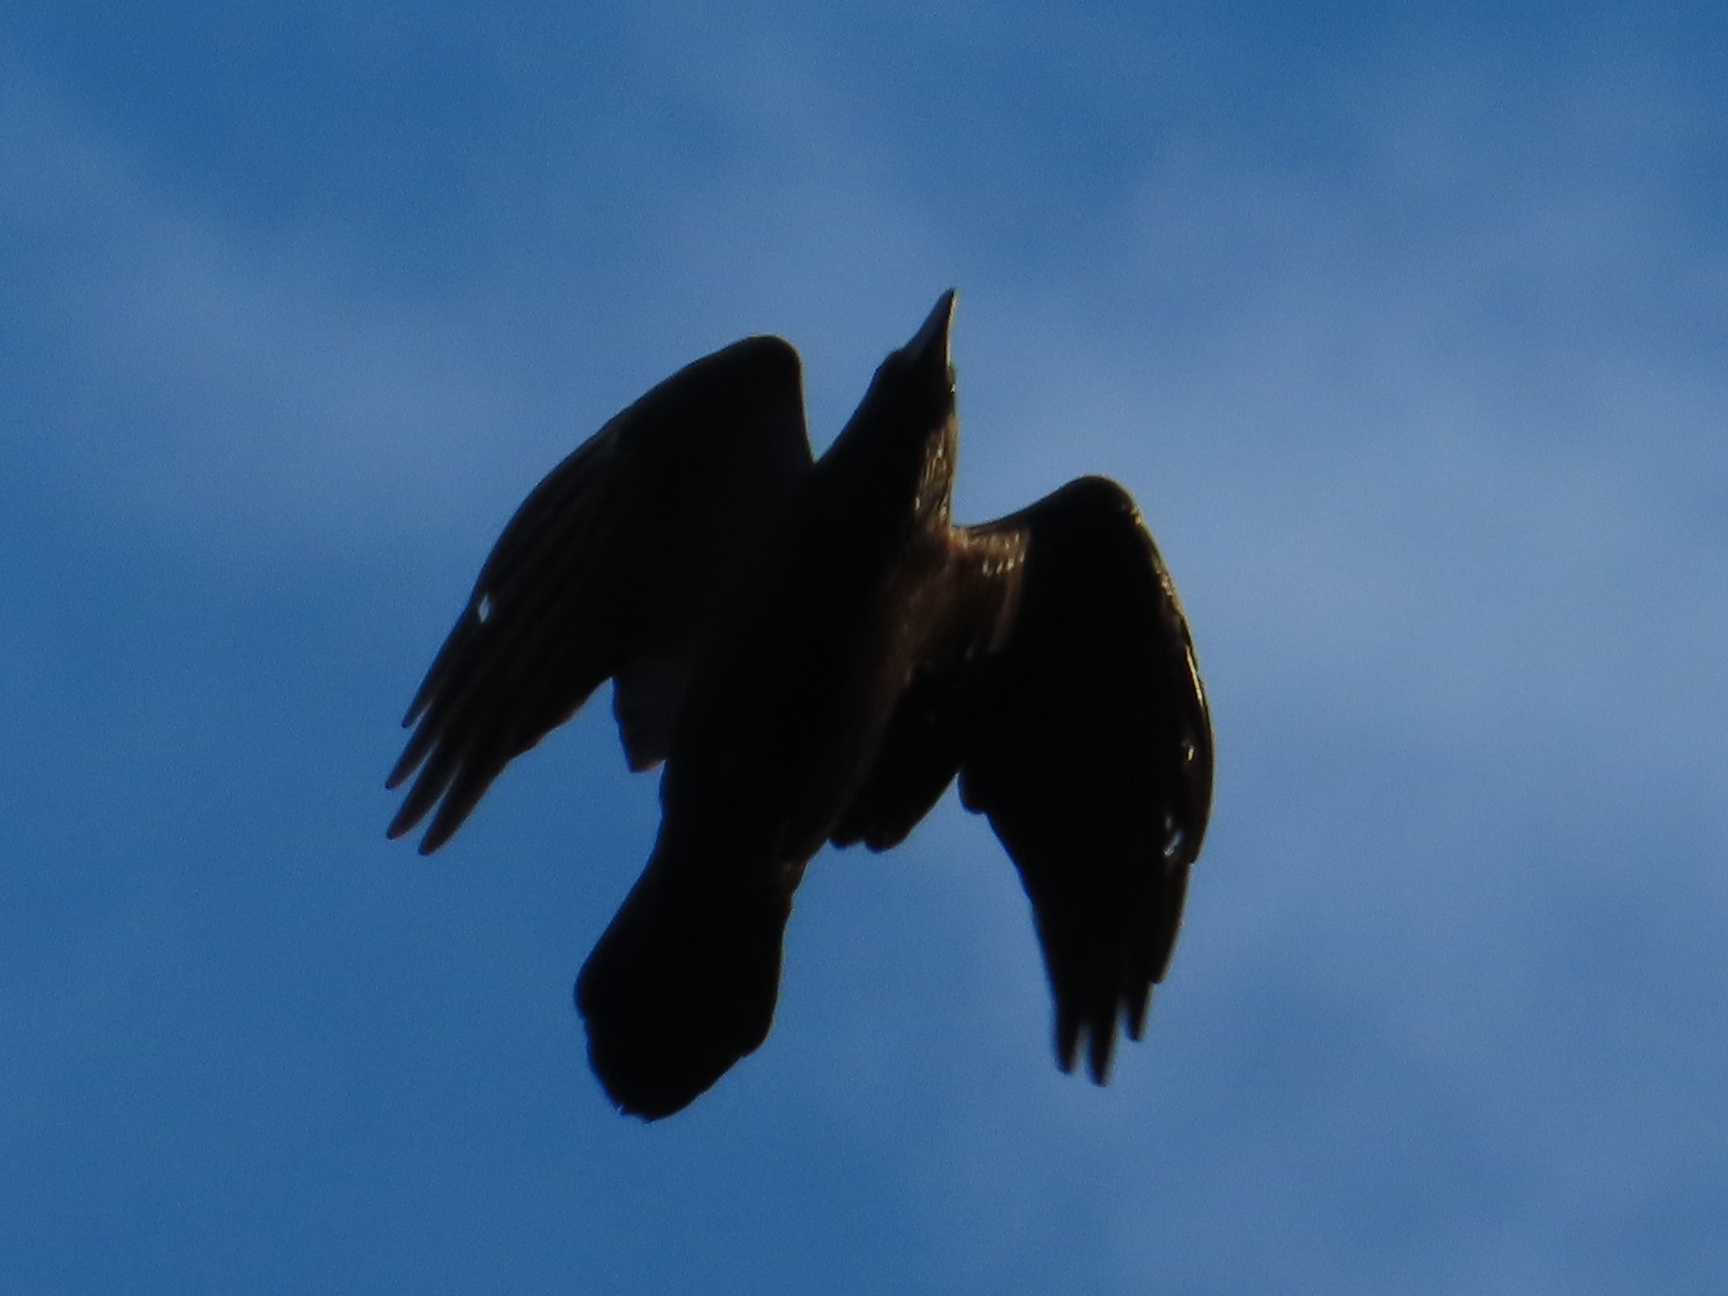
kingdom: Animalia
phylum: Chordata
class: Aves
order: Passeriformes
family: Corvidae
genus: Corvus
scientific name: Corvus corax
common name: Common raven
